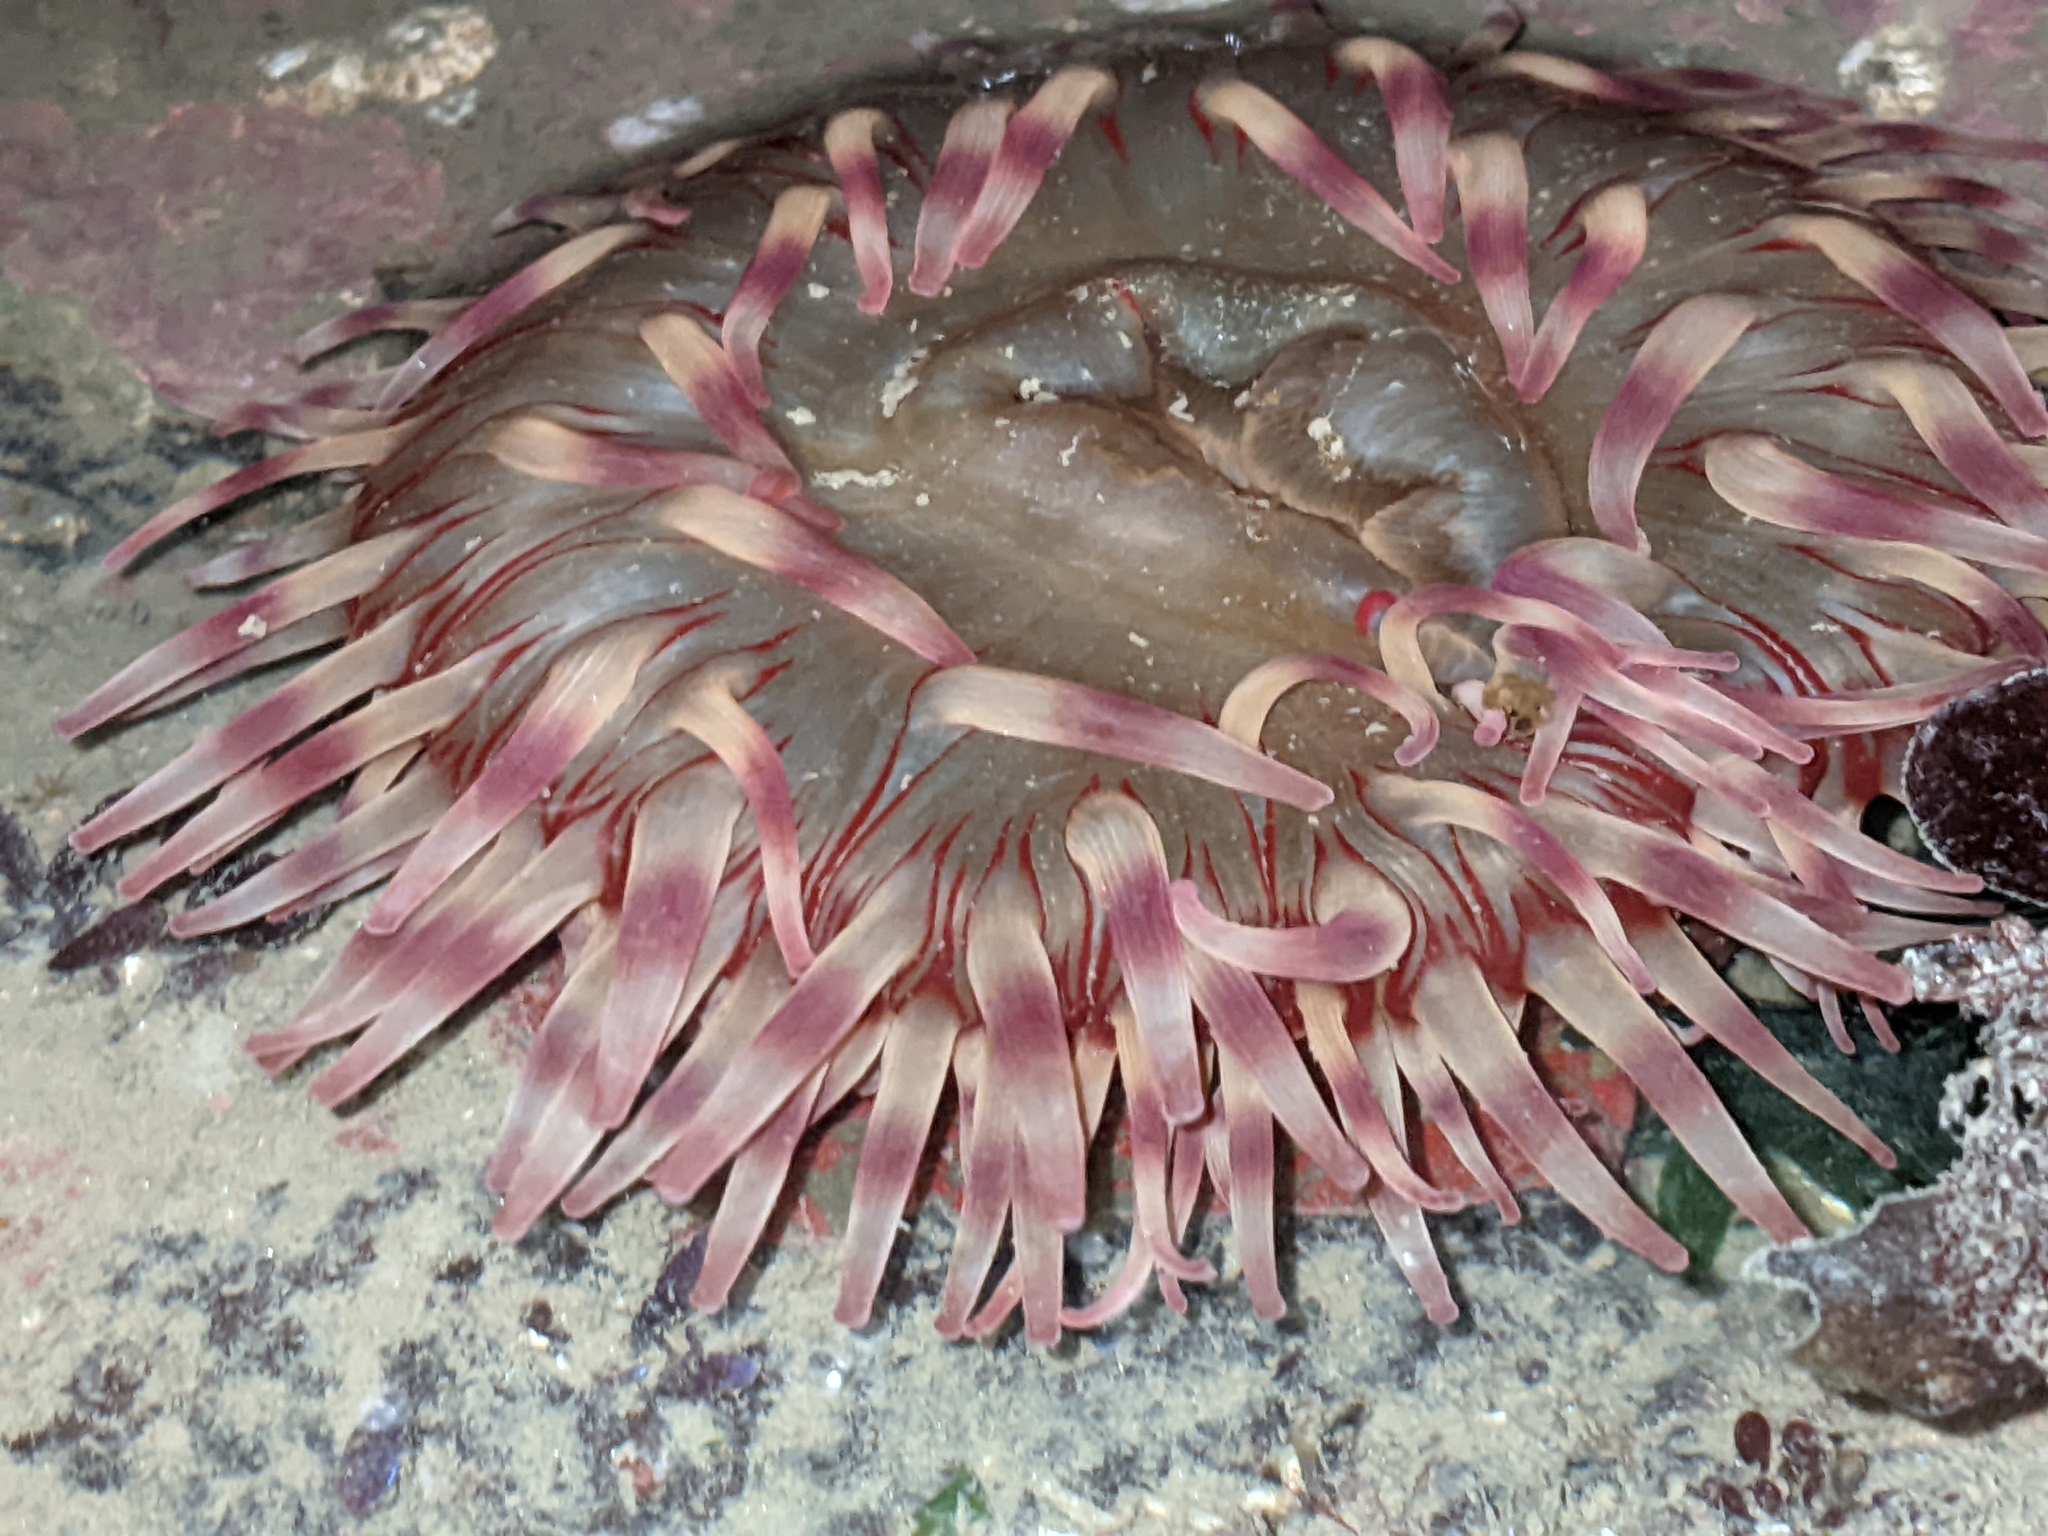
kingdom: Animalia
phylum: Cnidaria
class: Anthozoa
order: Actiniaria
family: Actiniidae
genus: Urticina
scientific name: Urticina grebelnyi
